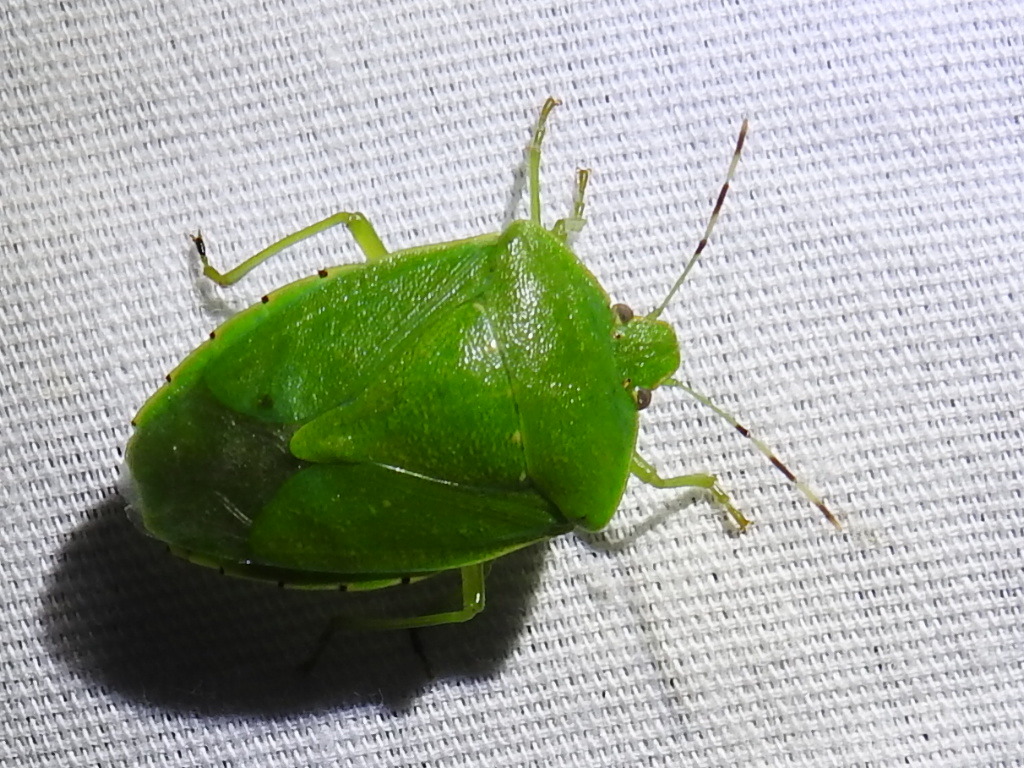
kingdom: Animalia
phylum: Arthropoda
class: Insecta
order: Hemiptera
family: Pentatomidae
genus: Chinavia
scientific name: Chinavia hilaris
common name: Green stink bug
